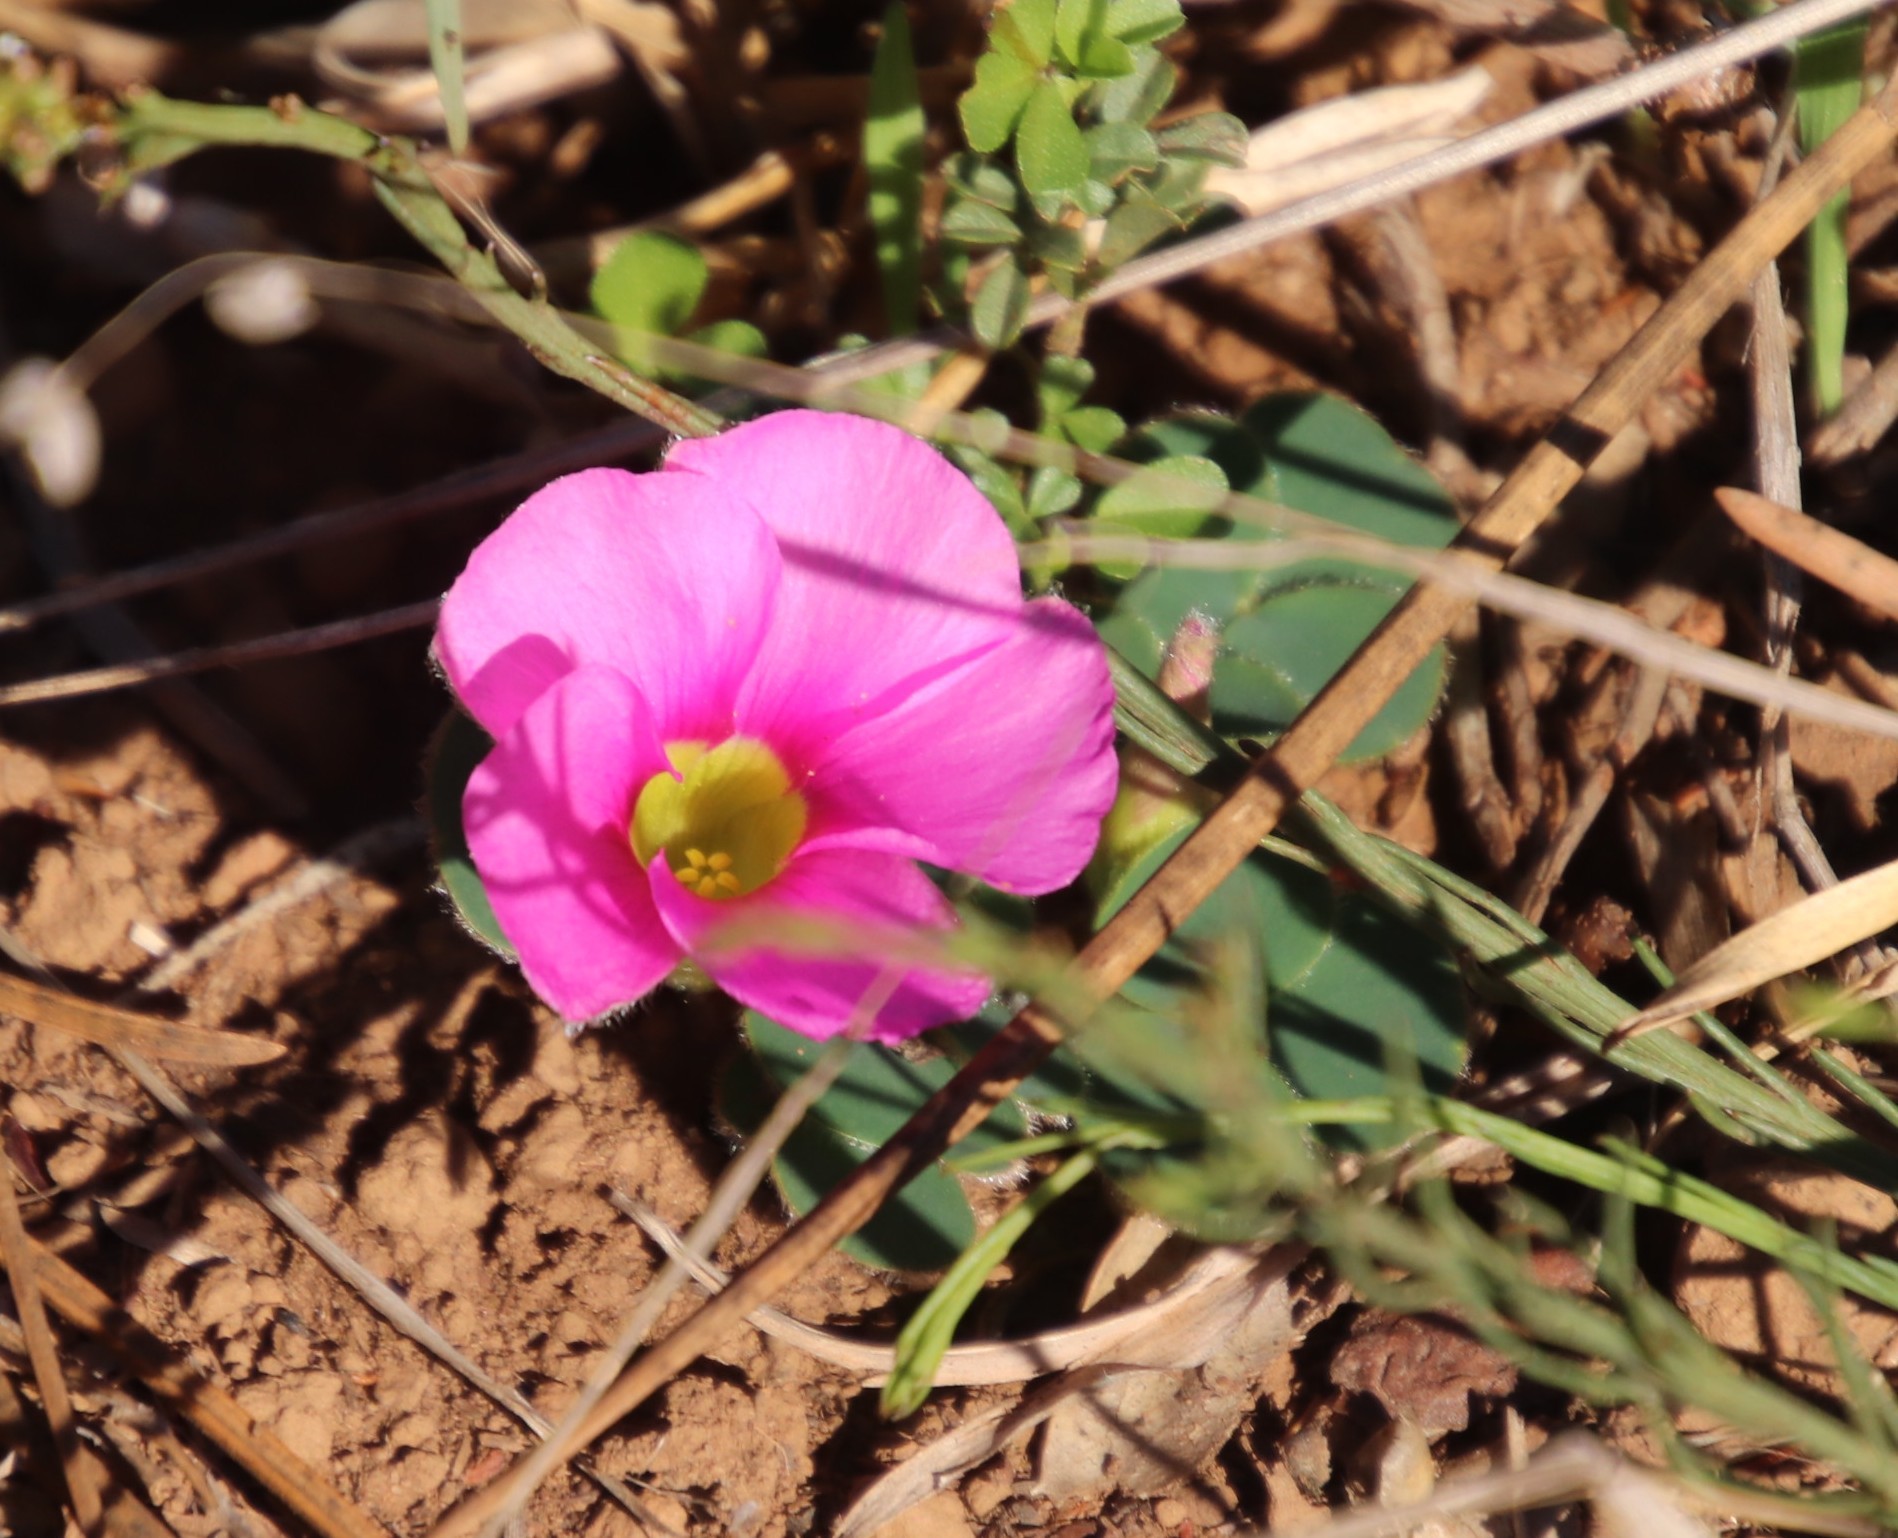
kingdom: Plantae
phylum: Tracheophyta
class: Magnoliopsida
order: Oxalidales
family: Oxalidaceae
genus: Oxalis
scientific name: Oxalis purpurea
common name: Purple woodsorrel
